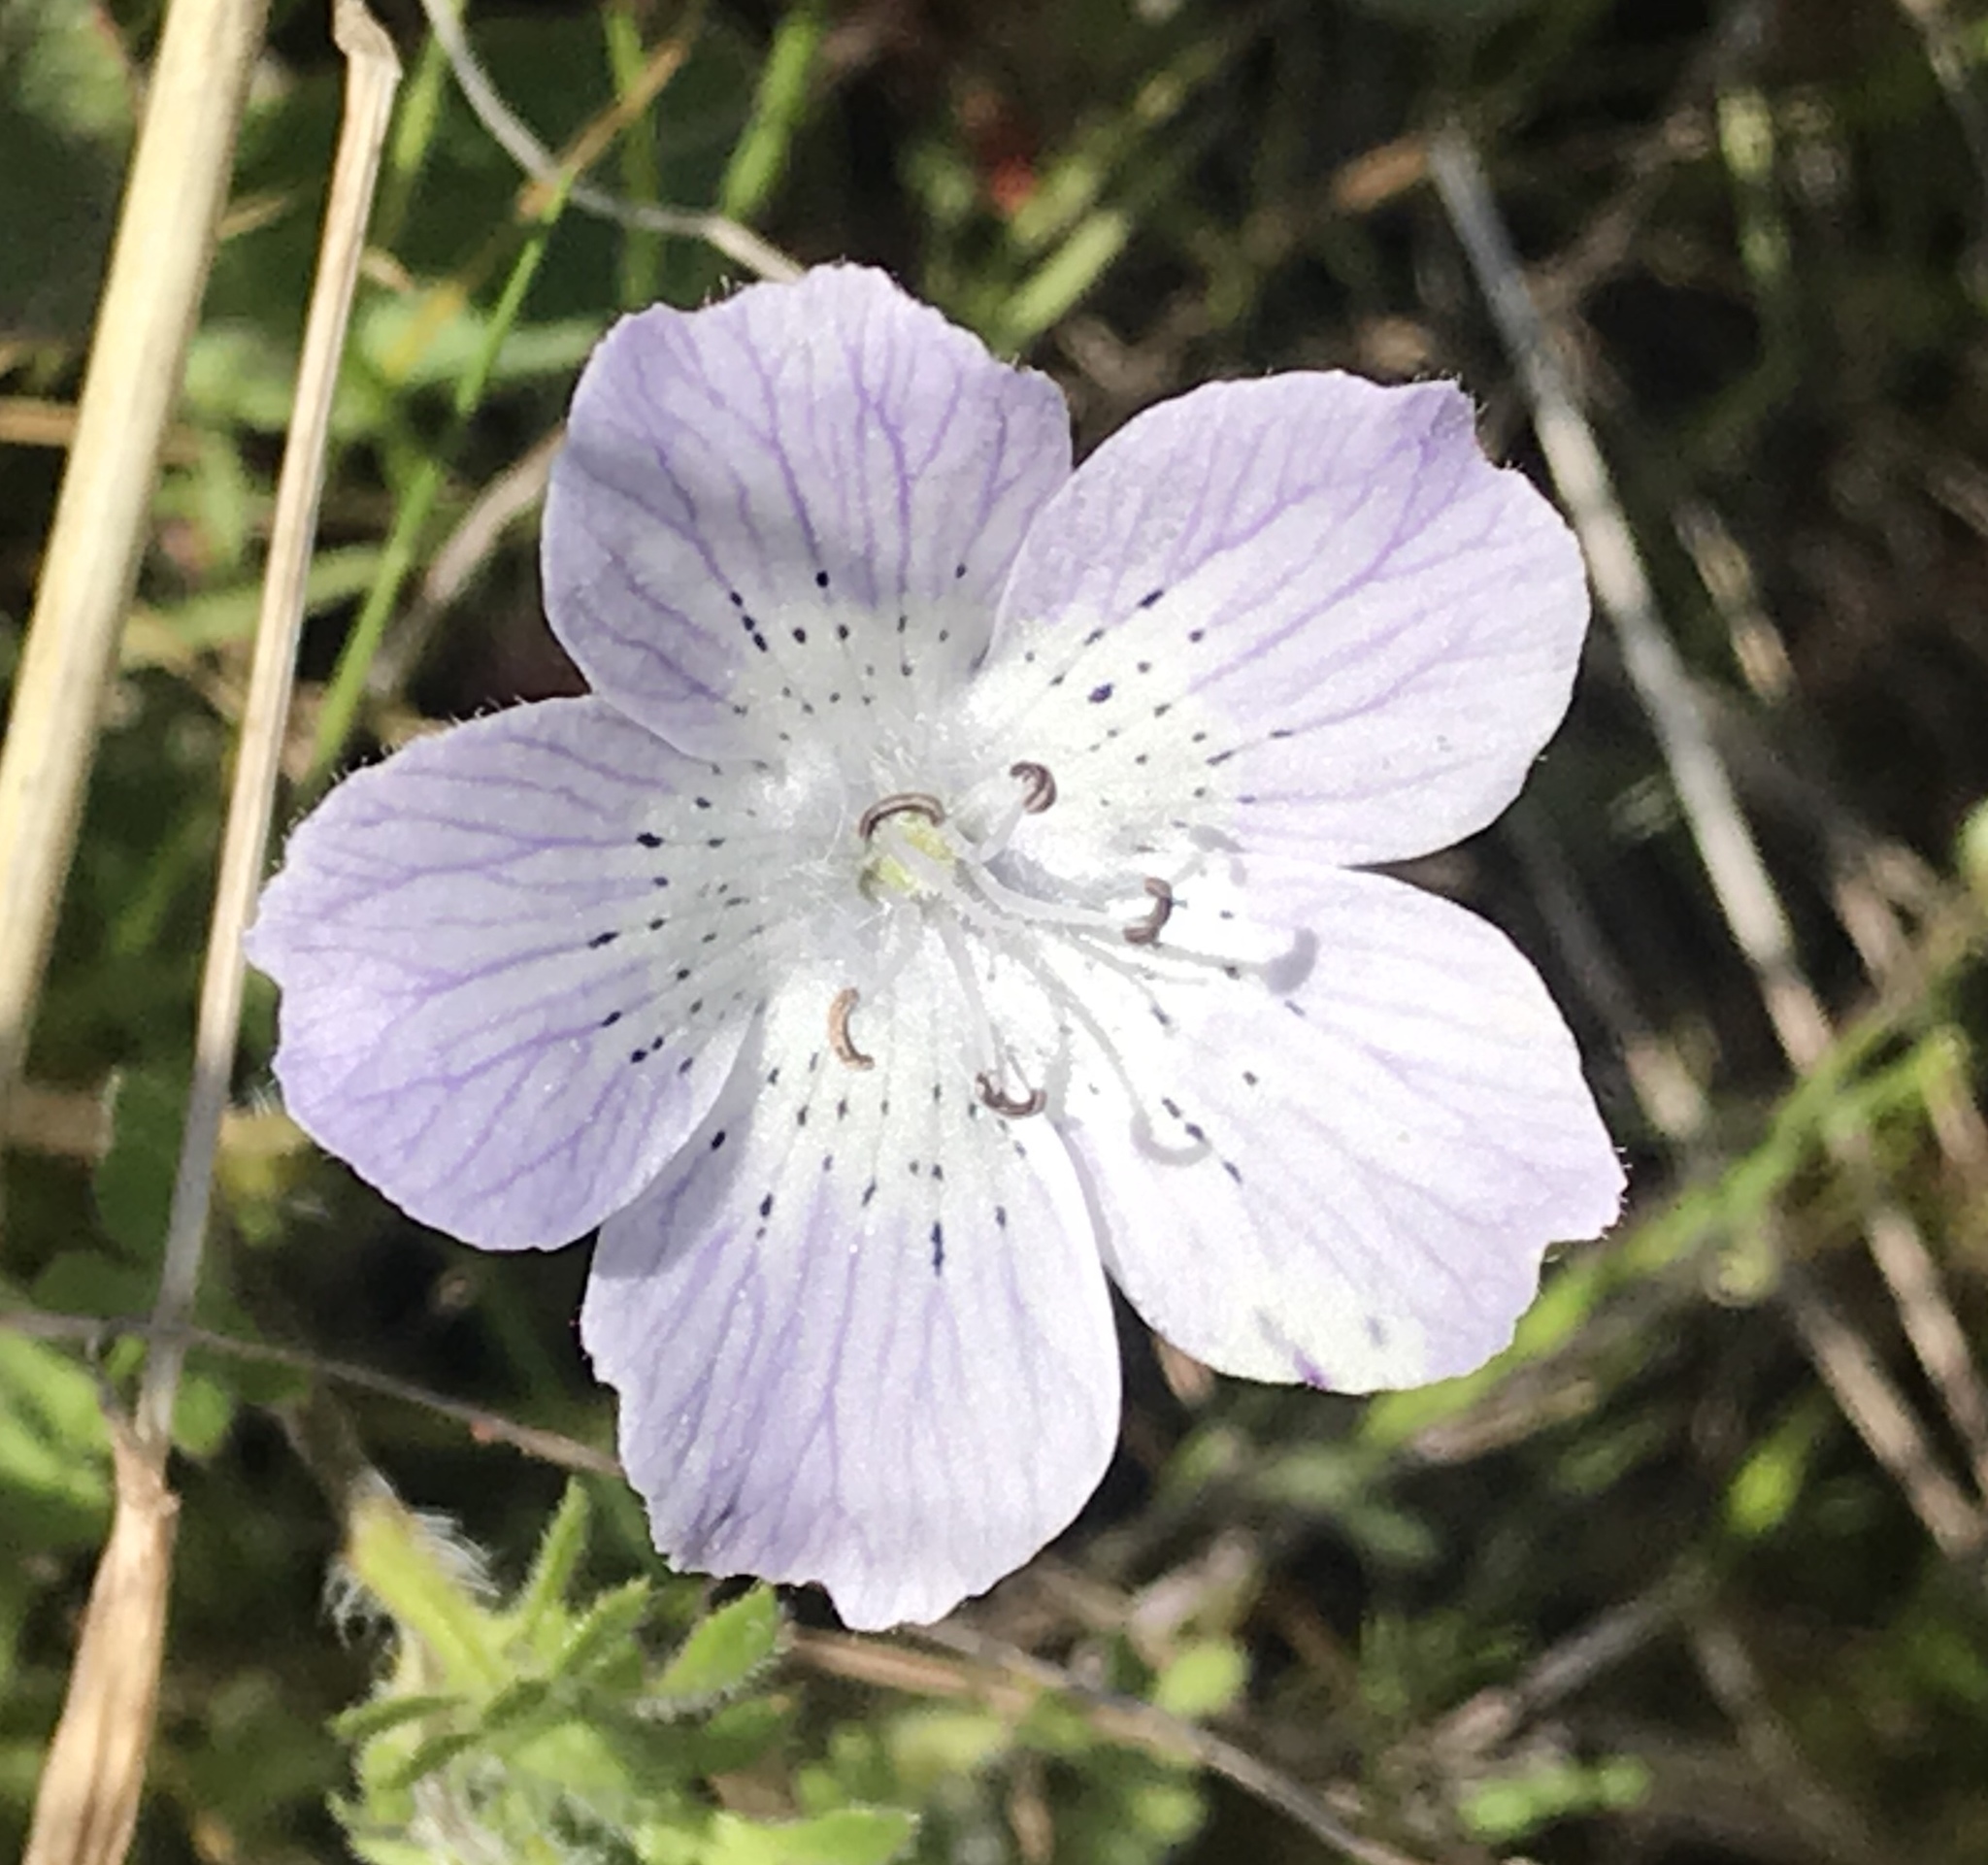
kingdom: Plantae
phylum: Tracheophyta
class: Magnoliopsida
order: Boraginales
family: Hydrophyllaceae
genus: Nemophila
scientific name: Nemophila menziesii
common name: Baby's-blue-eyes
